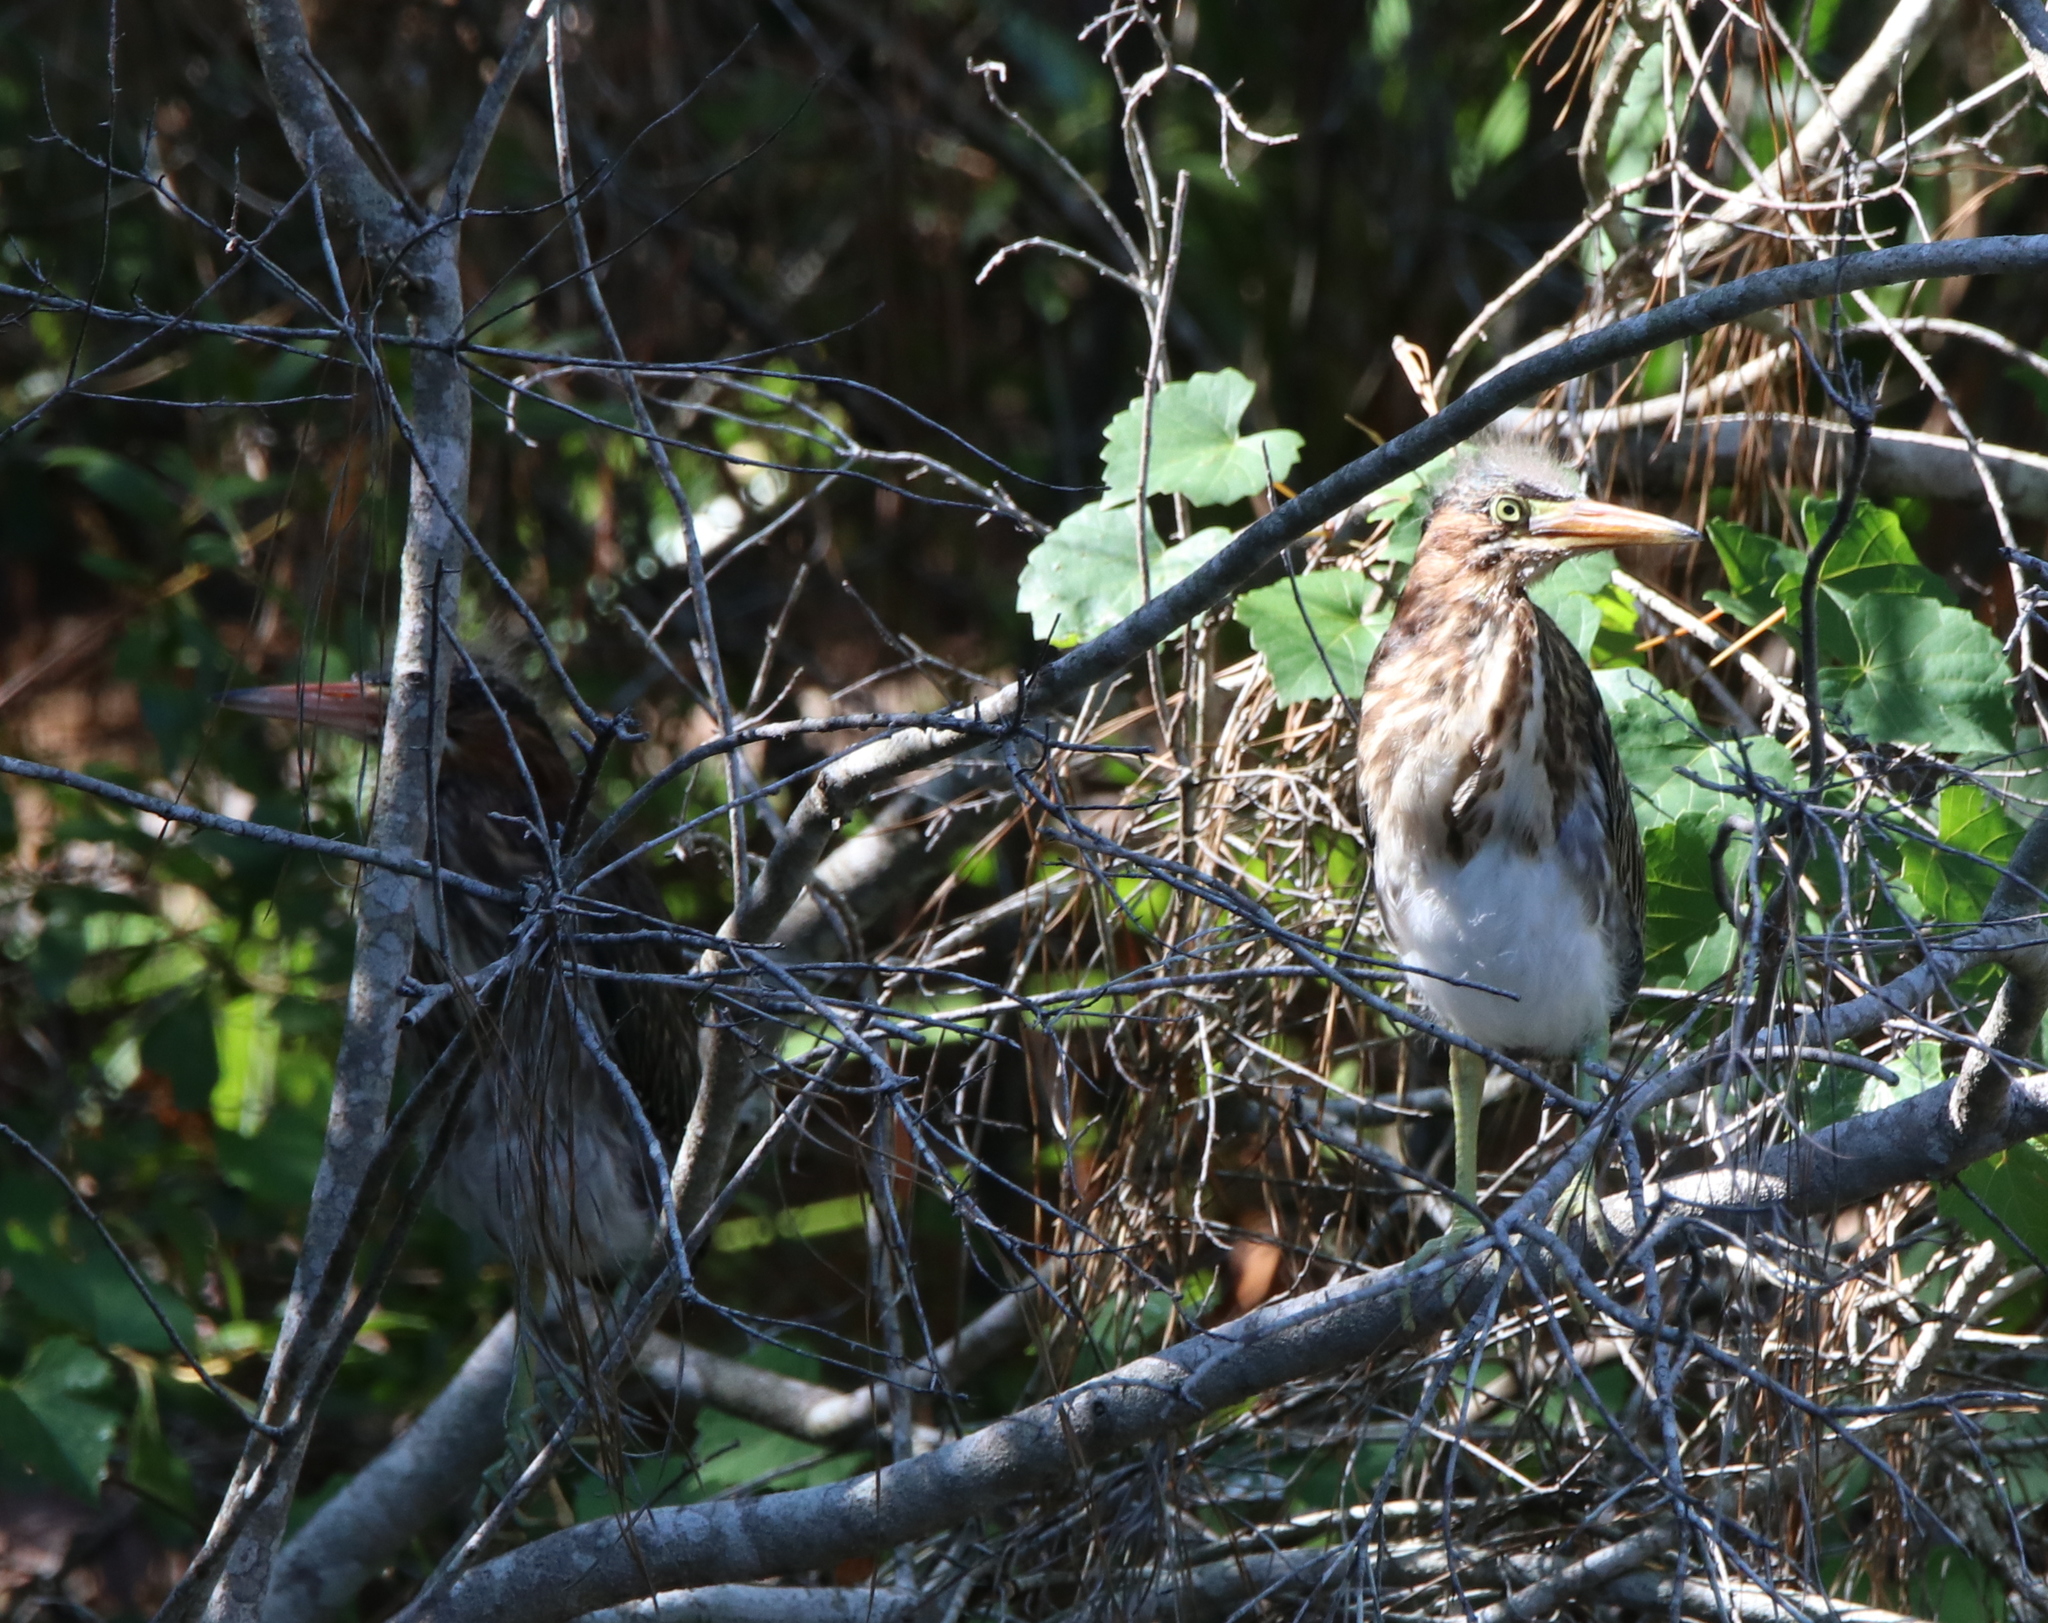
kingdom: Animalia
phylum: Chordata
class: Aves
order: Pelecaniformes
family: Ardeidae
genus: Butorides
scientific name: Butorides virescens
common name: Green heron
